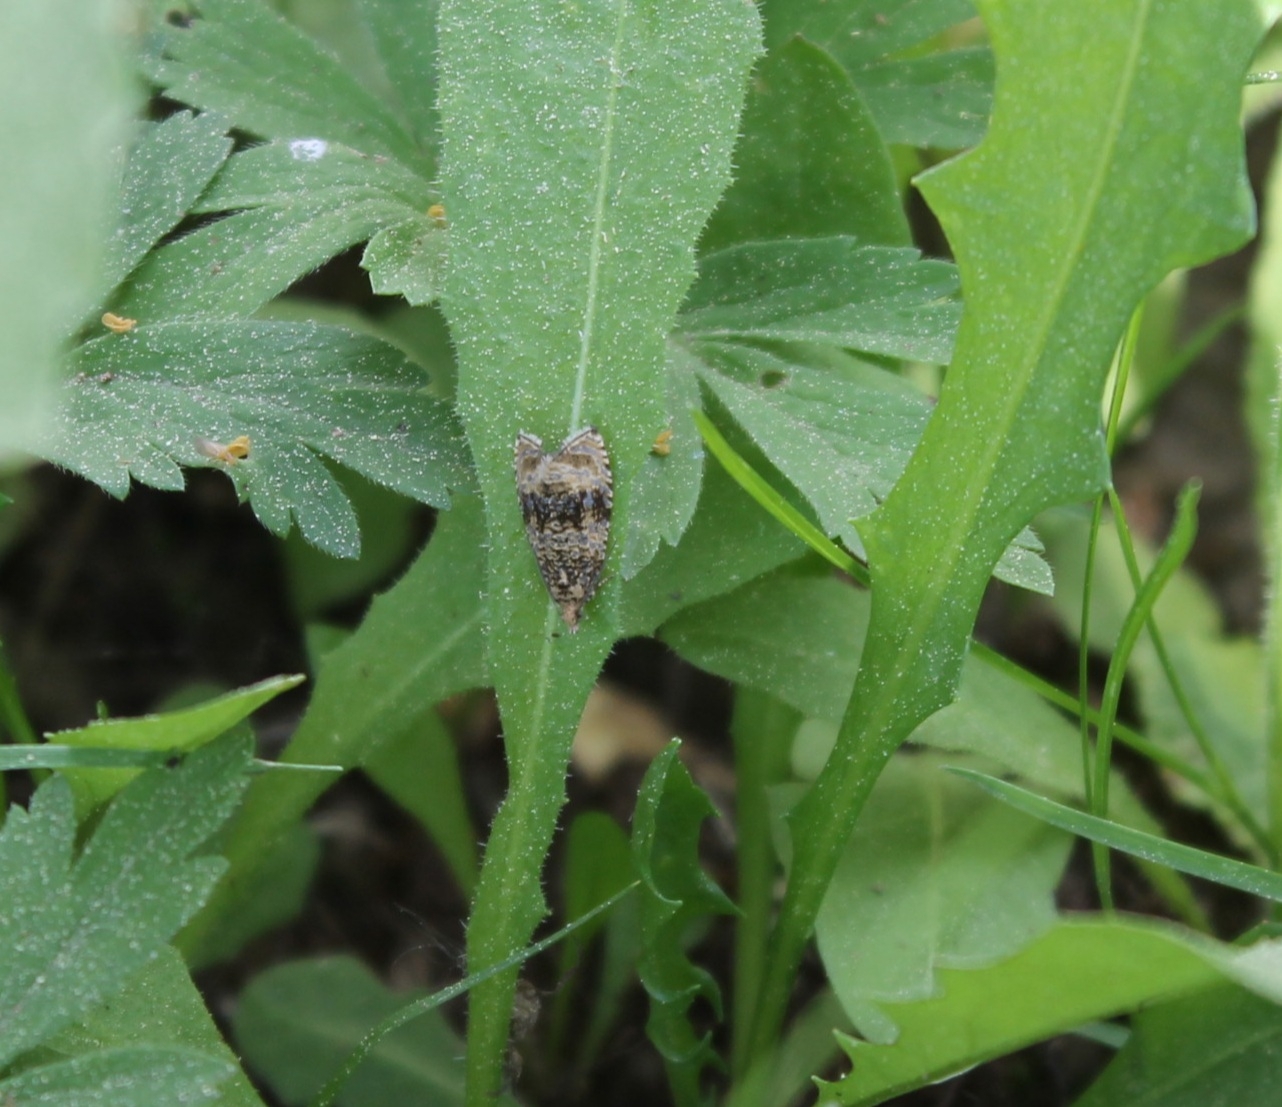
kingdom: Animalia
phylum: Arthropoda
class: Insecta
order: Lepidoptera
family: Tortricidae
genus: Syricoris
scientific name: Syricoris lacunana
